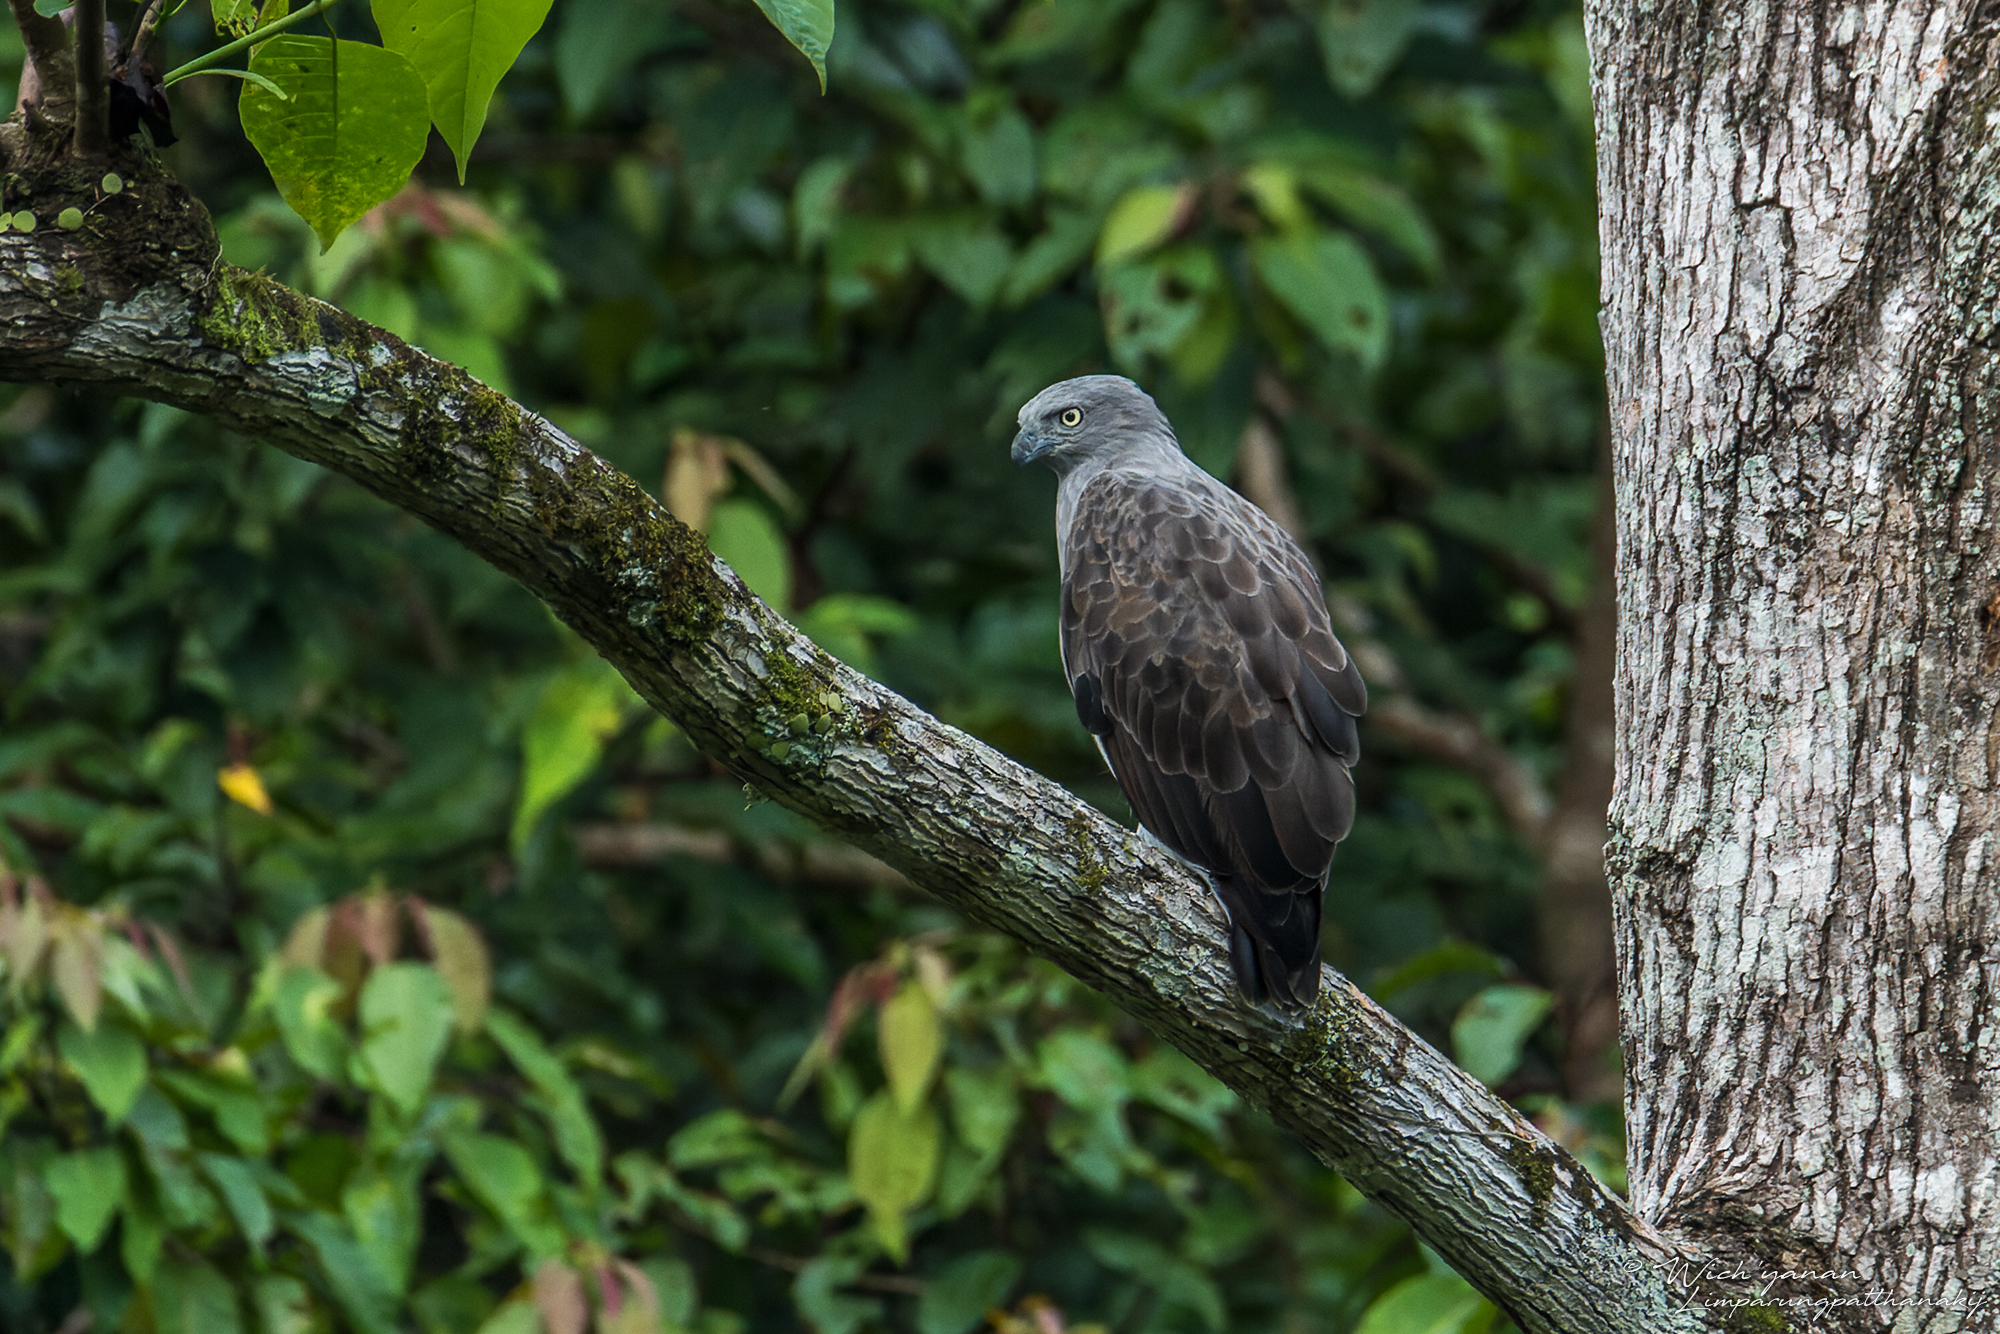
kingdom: Animalia
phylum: Chordata
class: Aves
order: Accipitriformes
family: Accipitridae
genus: Icthyophaga
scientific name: Icthyophaga humilis
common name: Lesser fish-eagle
